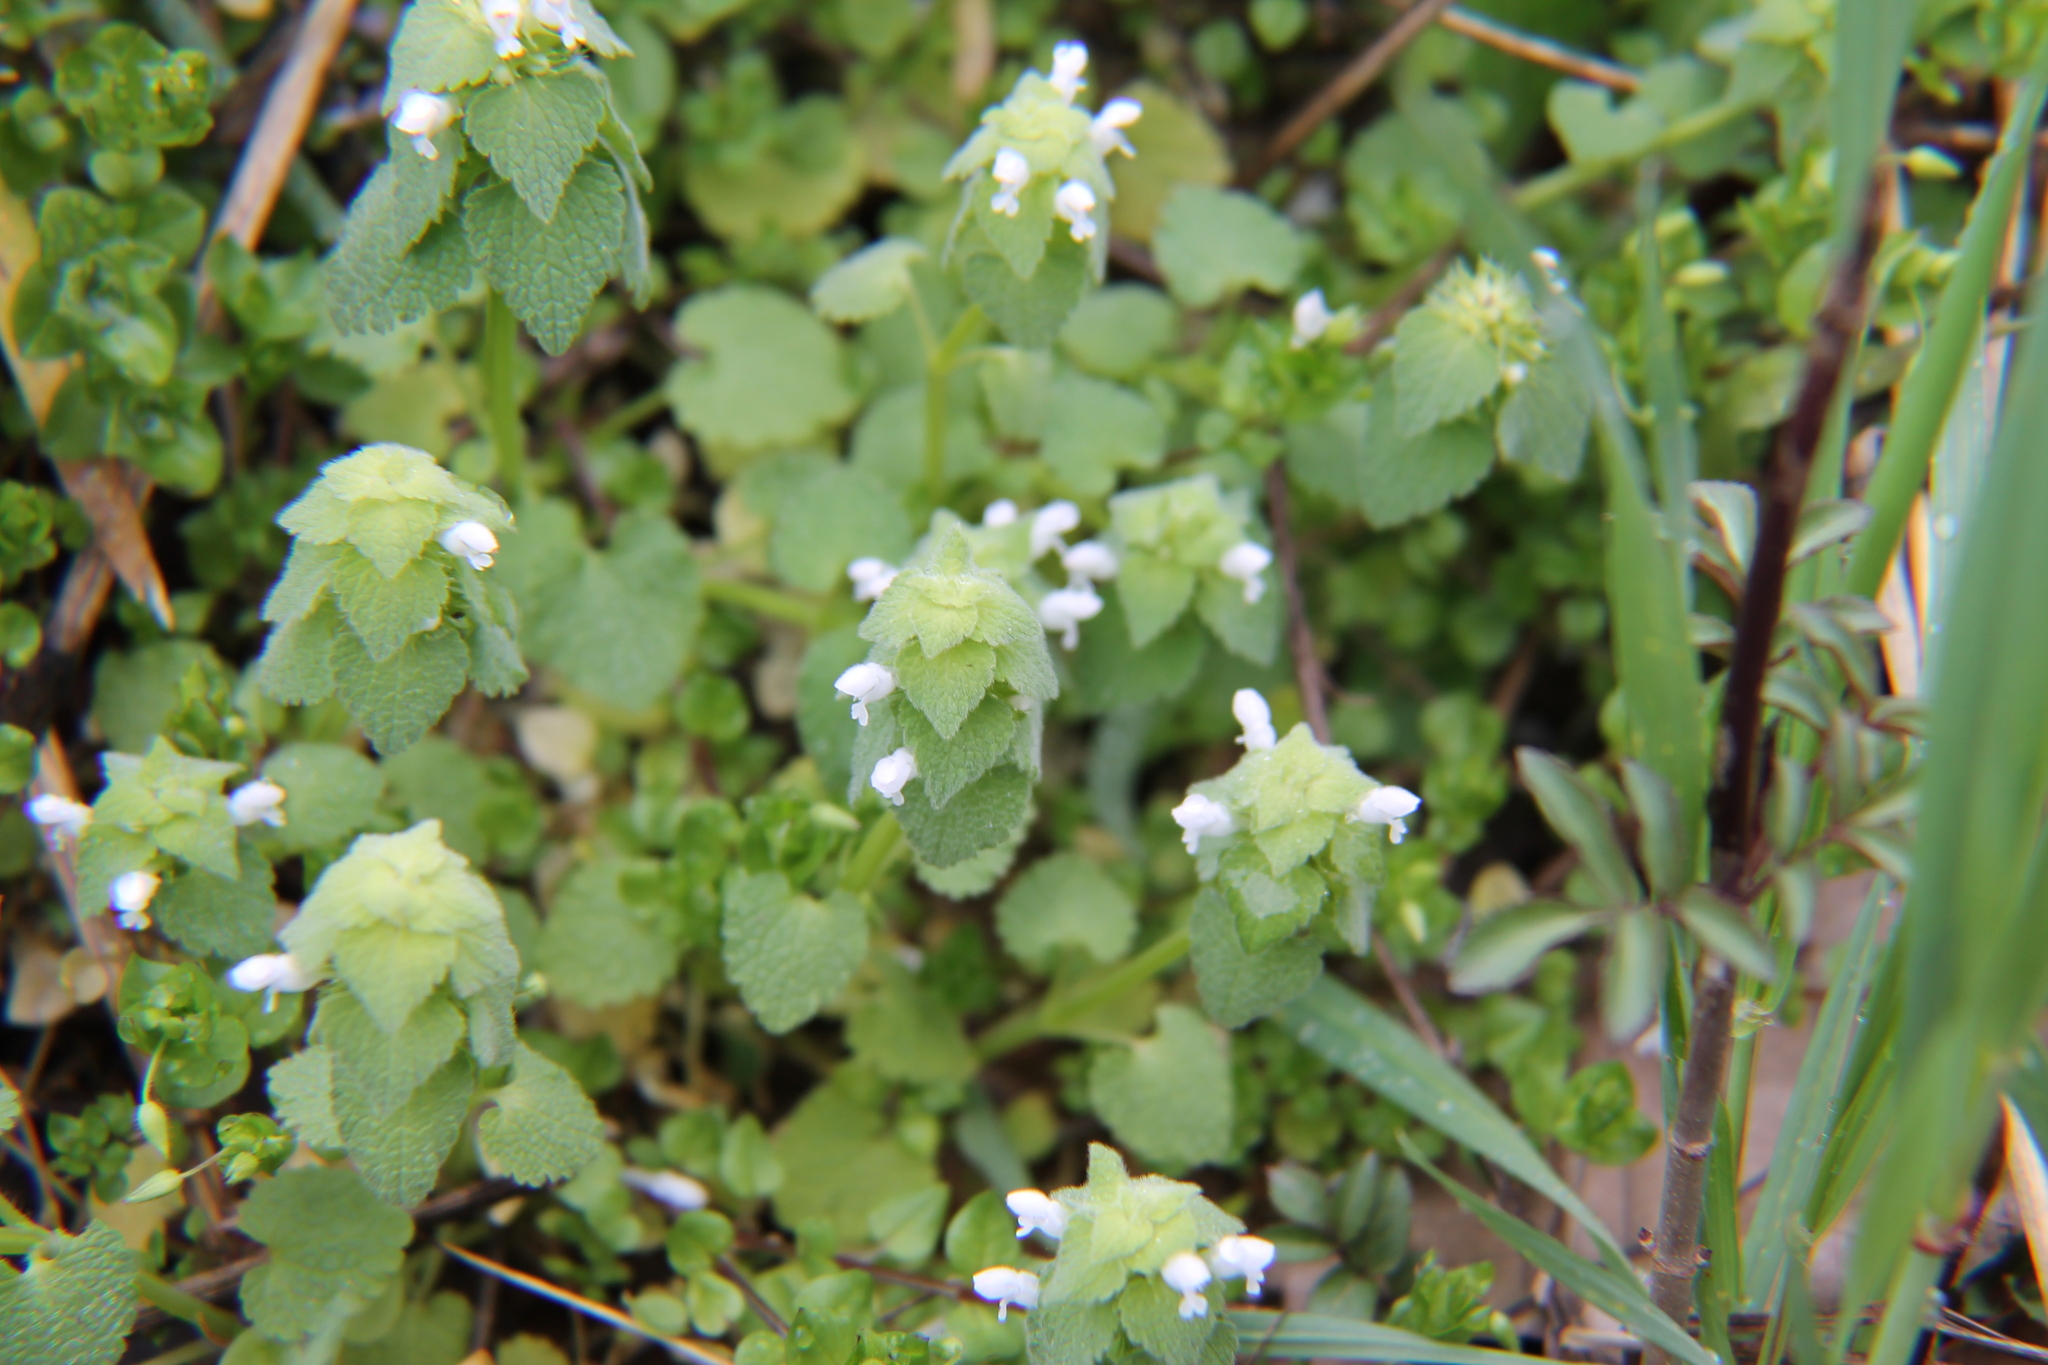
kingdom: Plantae
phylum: Tracheophyta
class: Magnoliopsida
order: Lamiales
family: Lamiaceae
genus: Lamium
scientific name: Lamium purpureum
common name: Red dead-nettle
